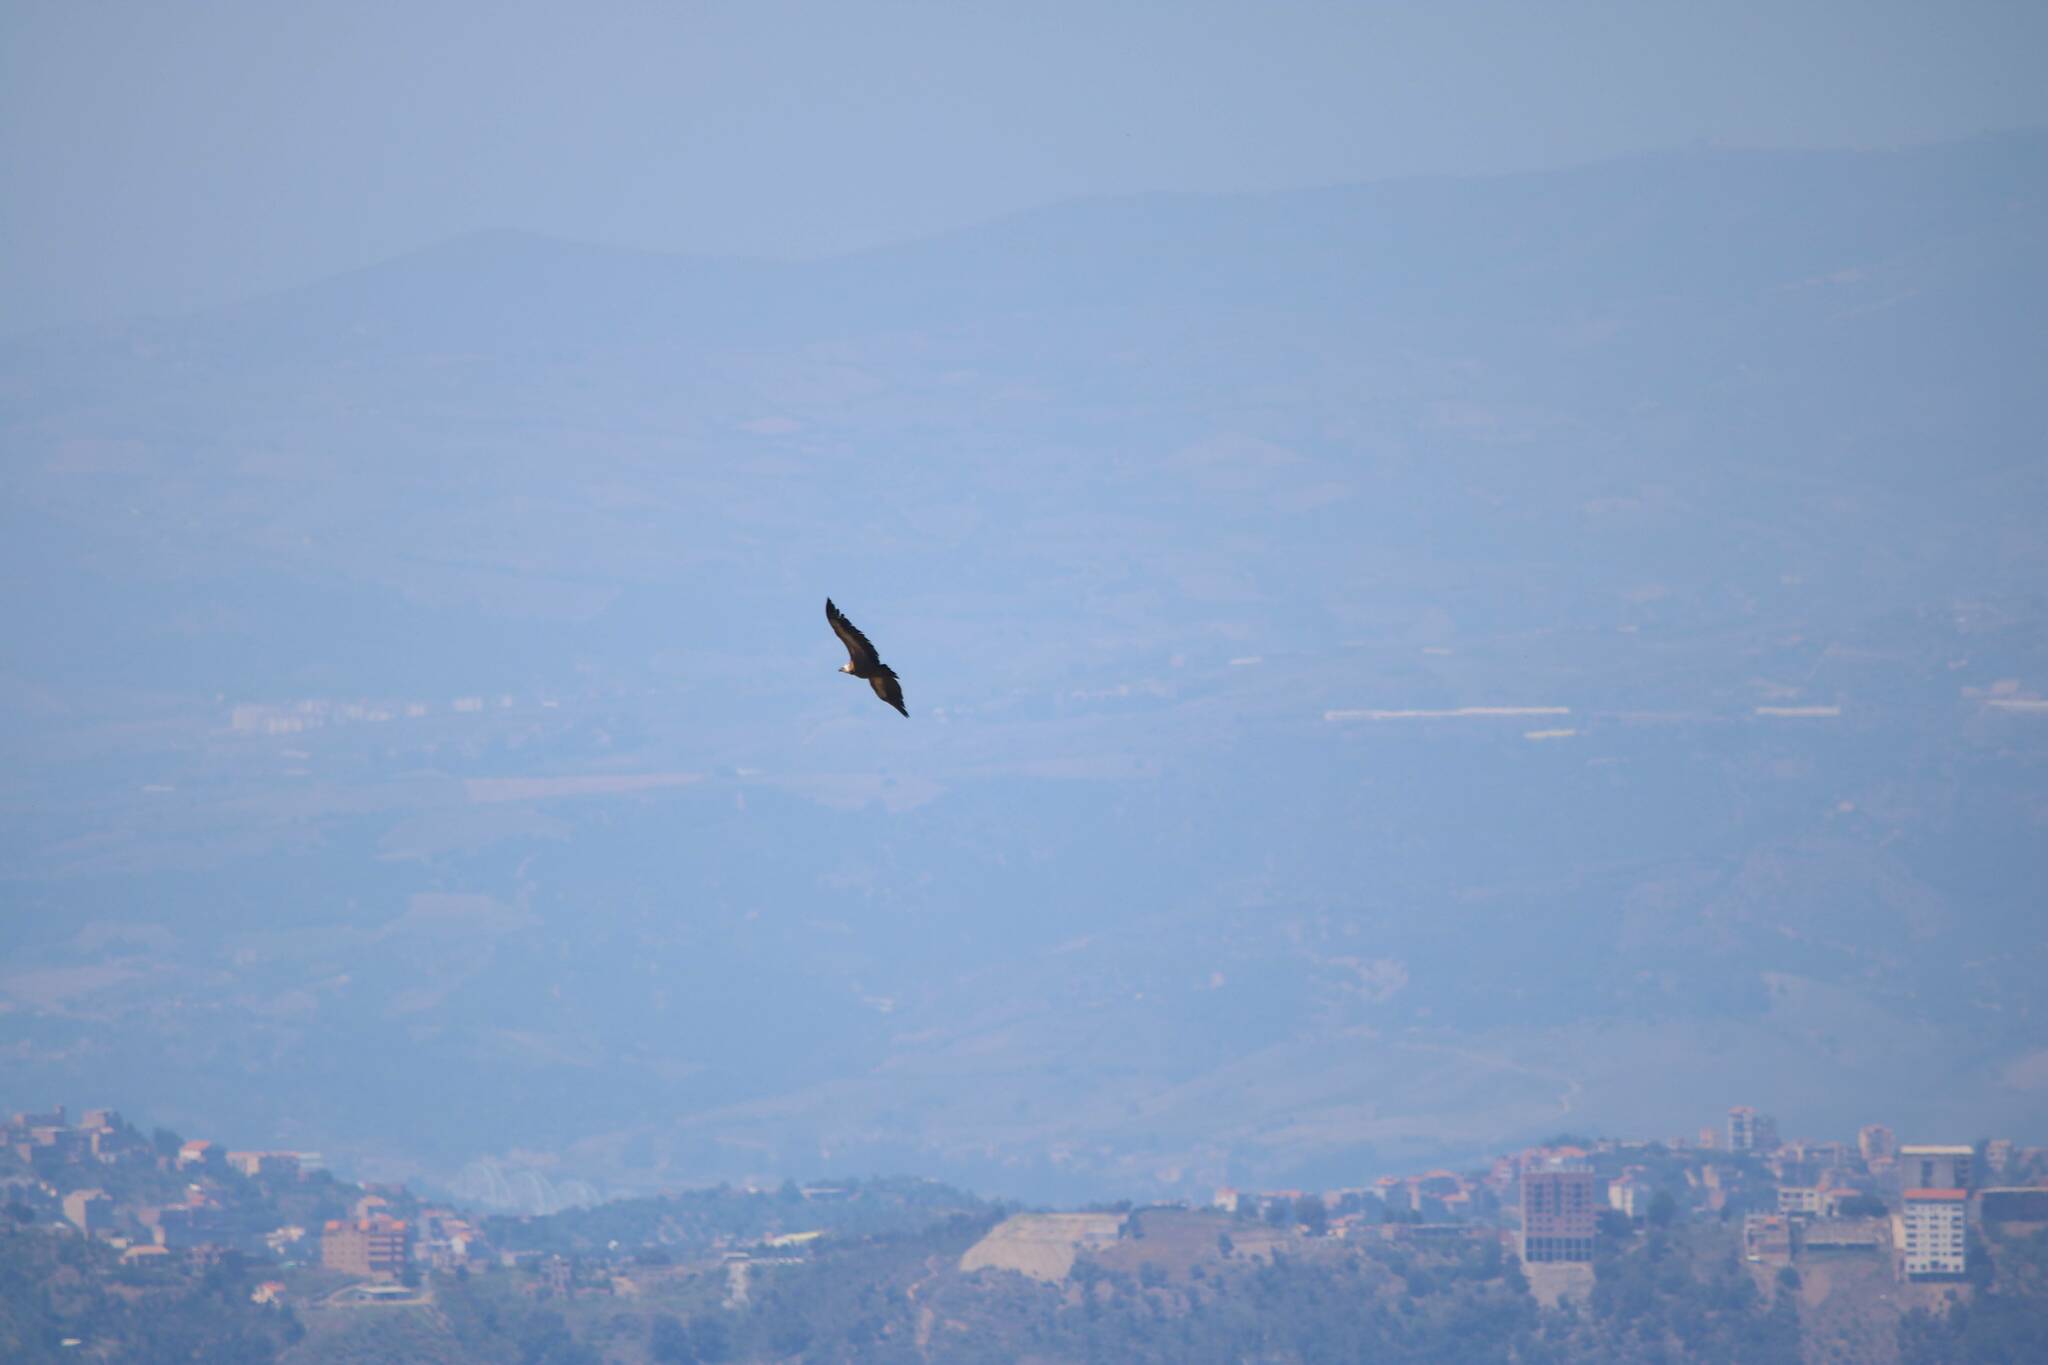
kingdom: Animalia
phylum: Chordata
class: Aves
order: Accipitriformes
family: Accipitridae
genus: Gyps
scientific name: Gyps fulvus
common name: Griffon vulture
